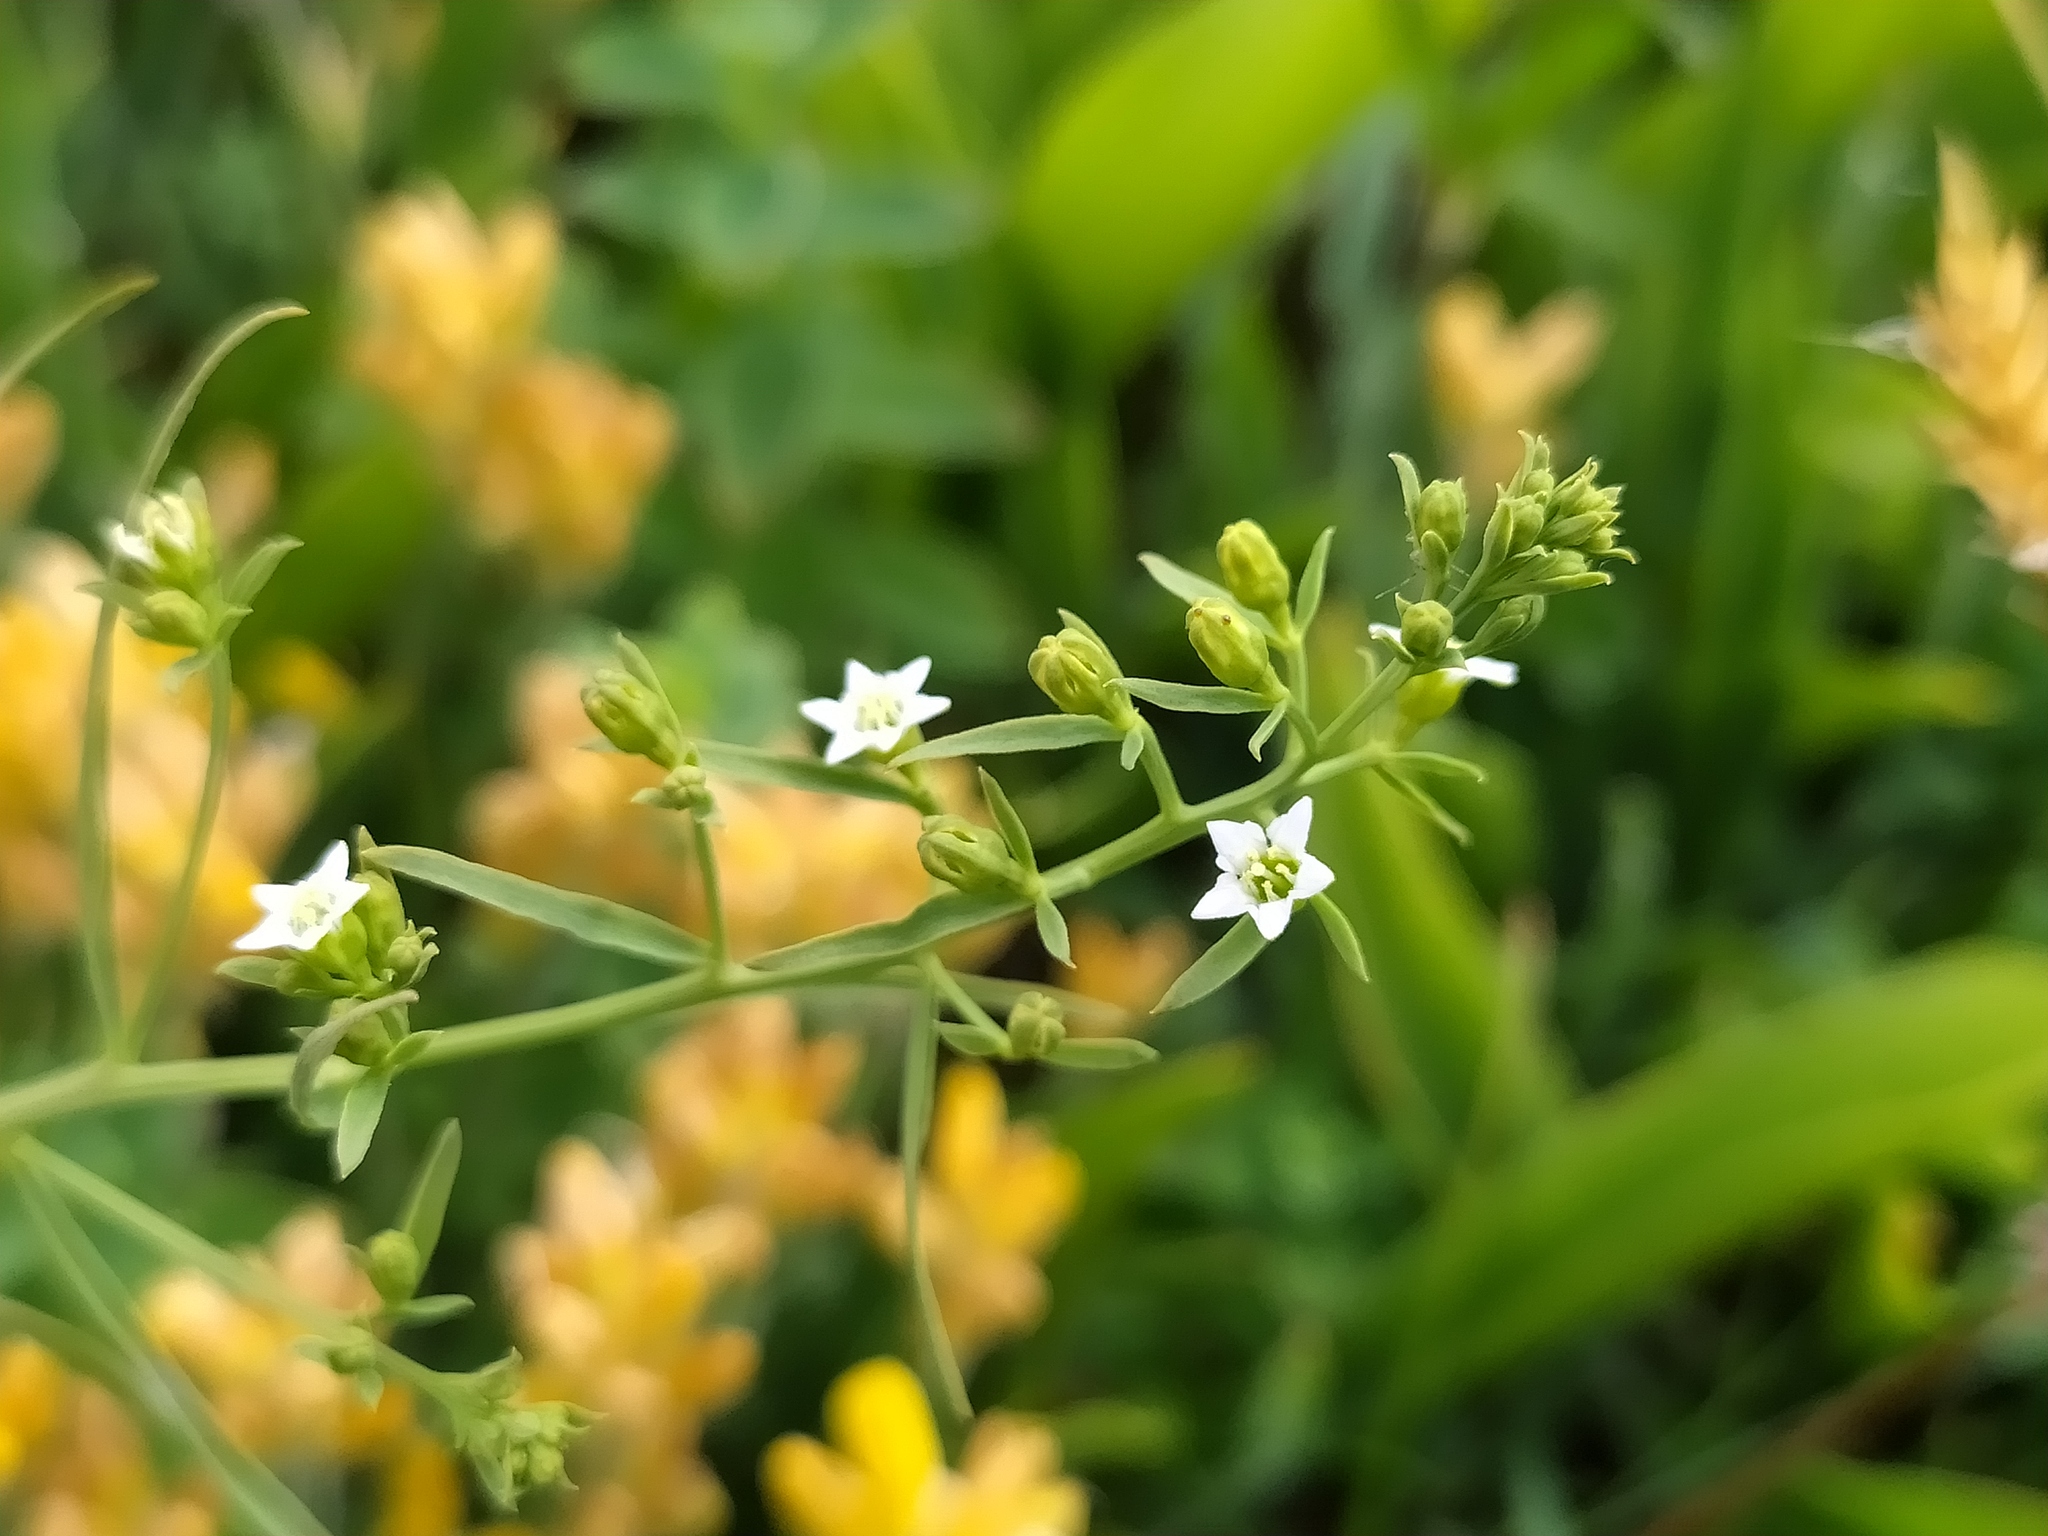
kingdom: Plantae
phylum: Tracheophyta
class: Magnoliopsida
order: Santalales
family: Thesiaceae
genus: Thesium
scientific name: Thesium pyrenaicum
